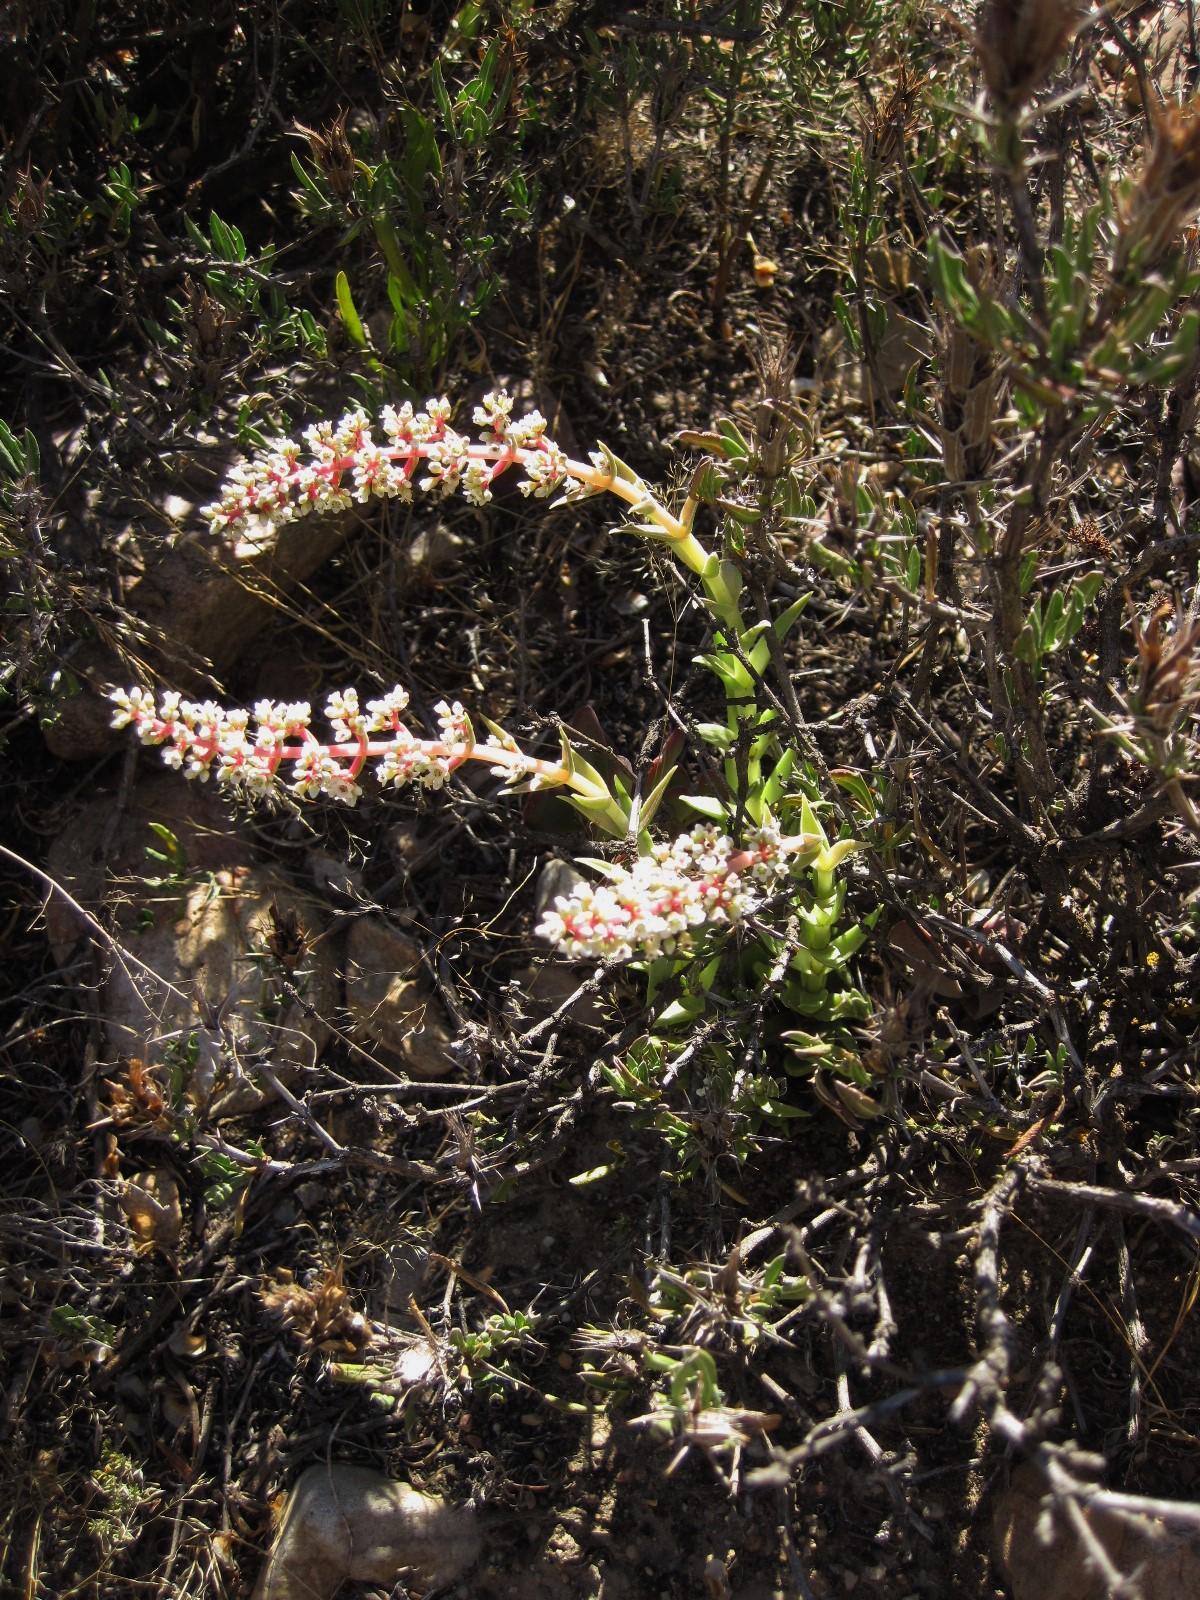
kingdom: Plantae
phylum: Tracheophyta
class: Magnoliopsida
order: Saxifragales
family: Crassulaceae
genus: Crassula
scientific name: Crassula capitella
